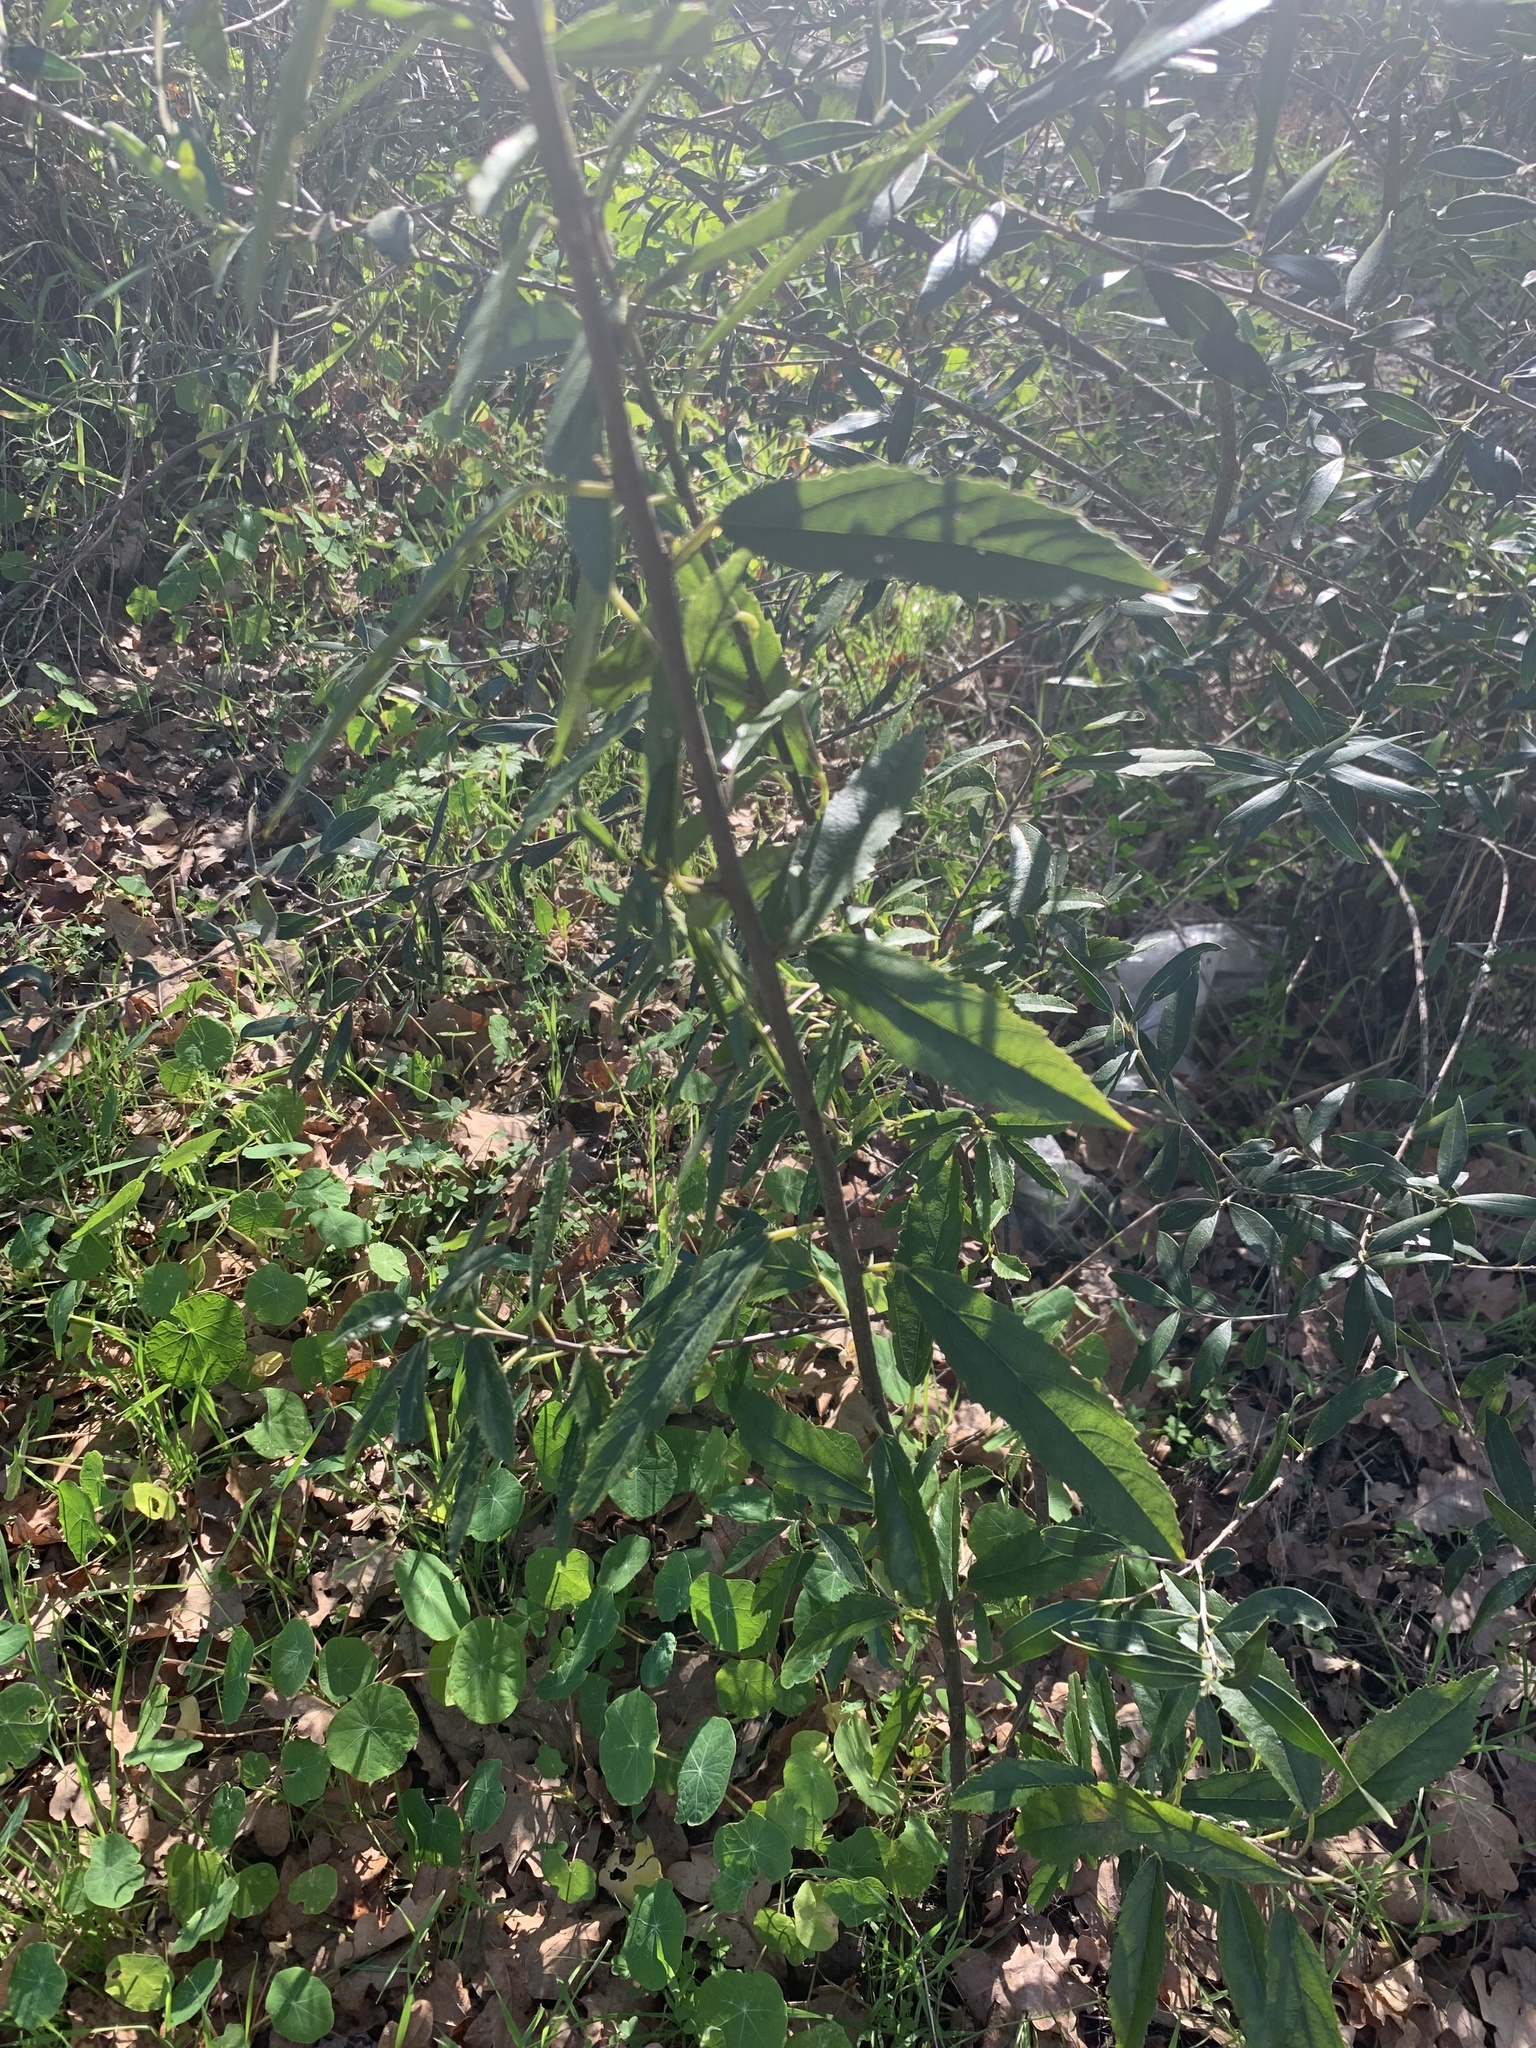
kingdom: Plantae
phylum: Tracheophyta
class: Magnoliopsida
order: Malpighiales
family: Achariaceae
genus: Kiggelaria
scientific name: Kiggelaria africana
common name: Wild peach
